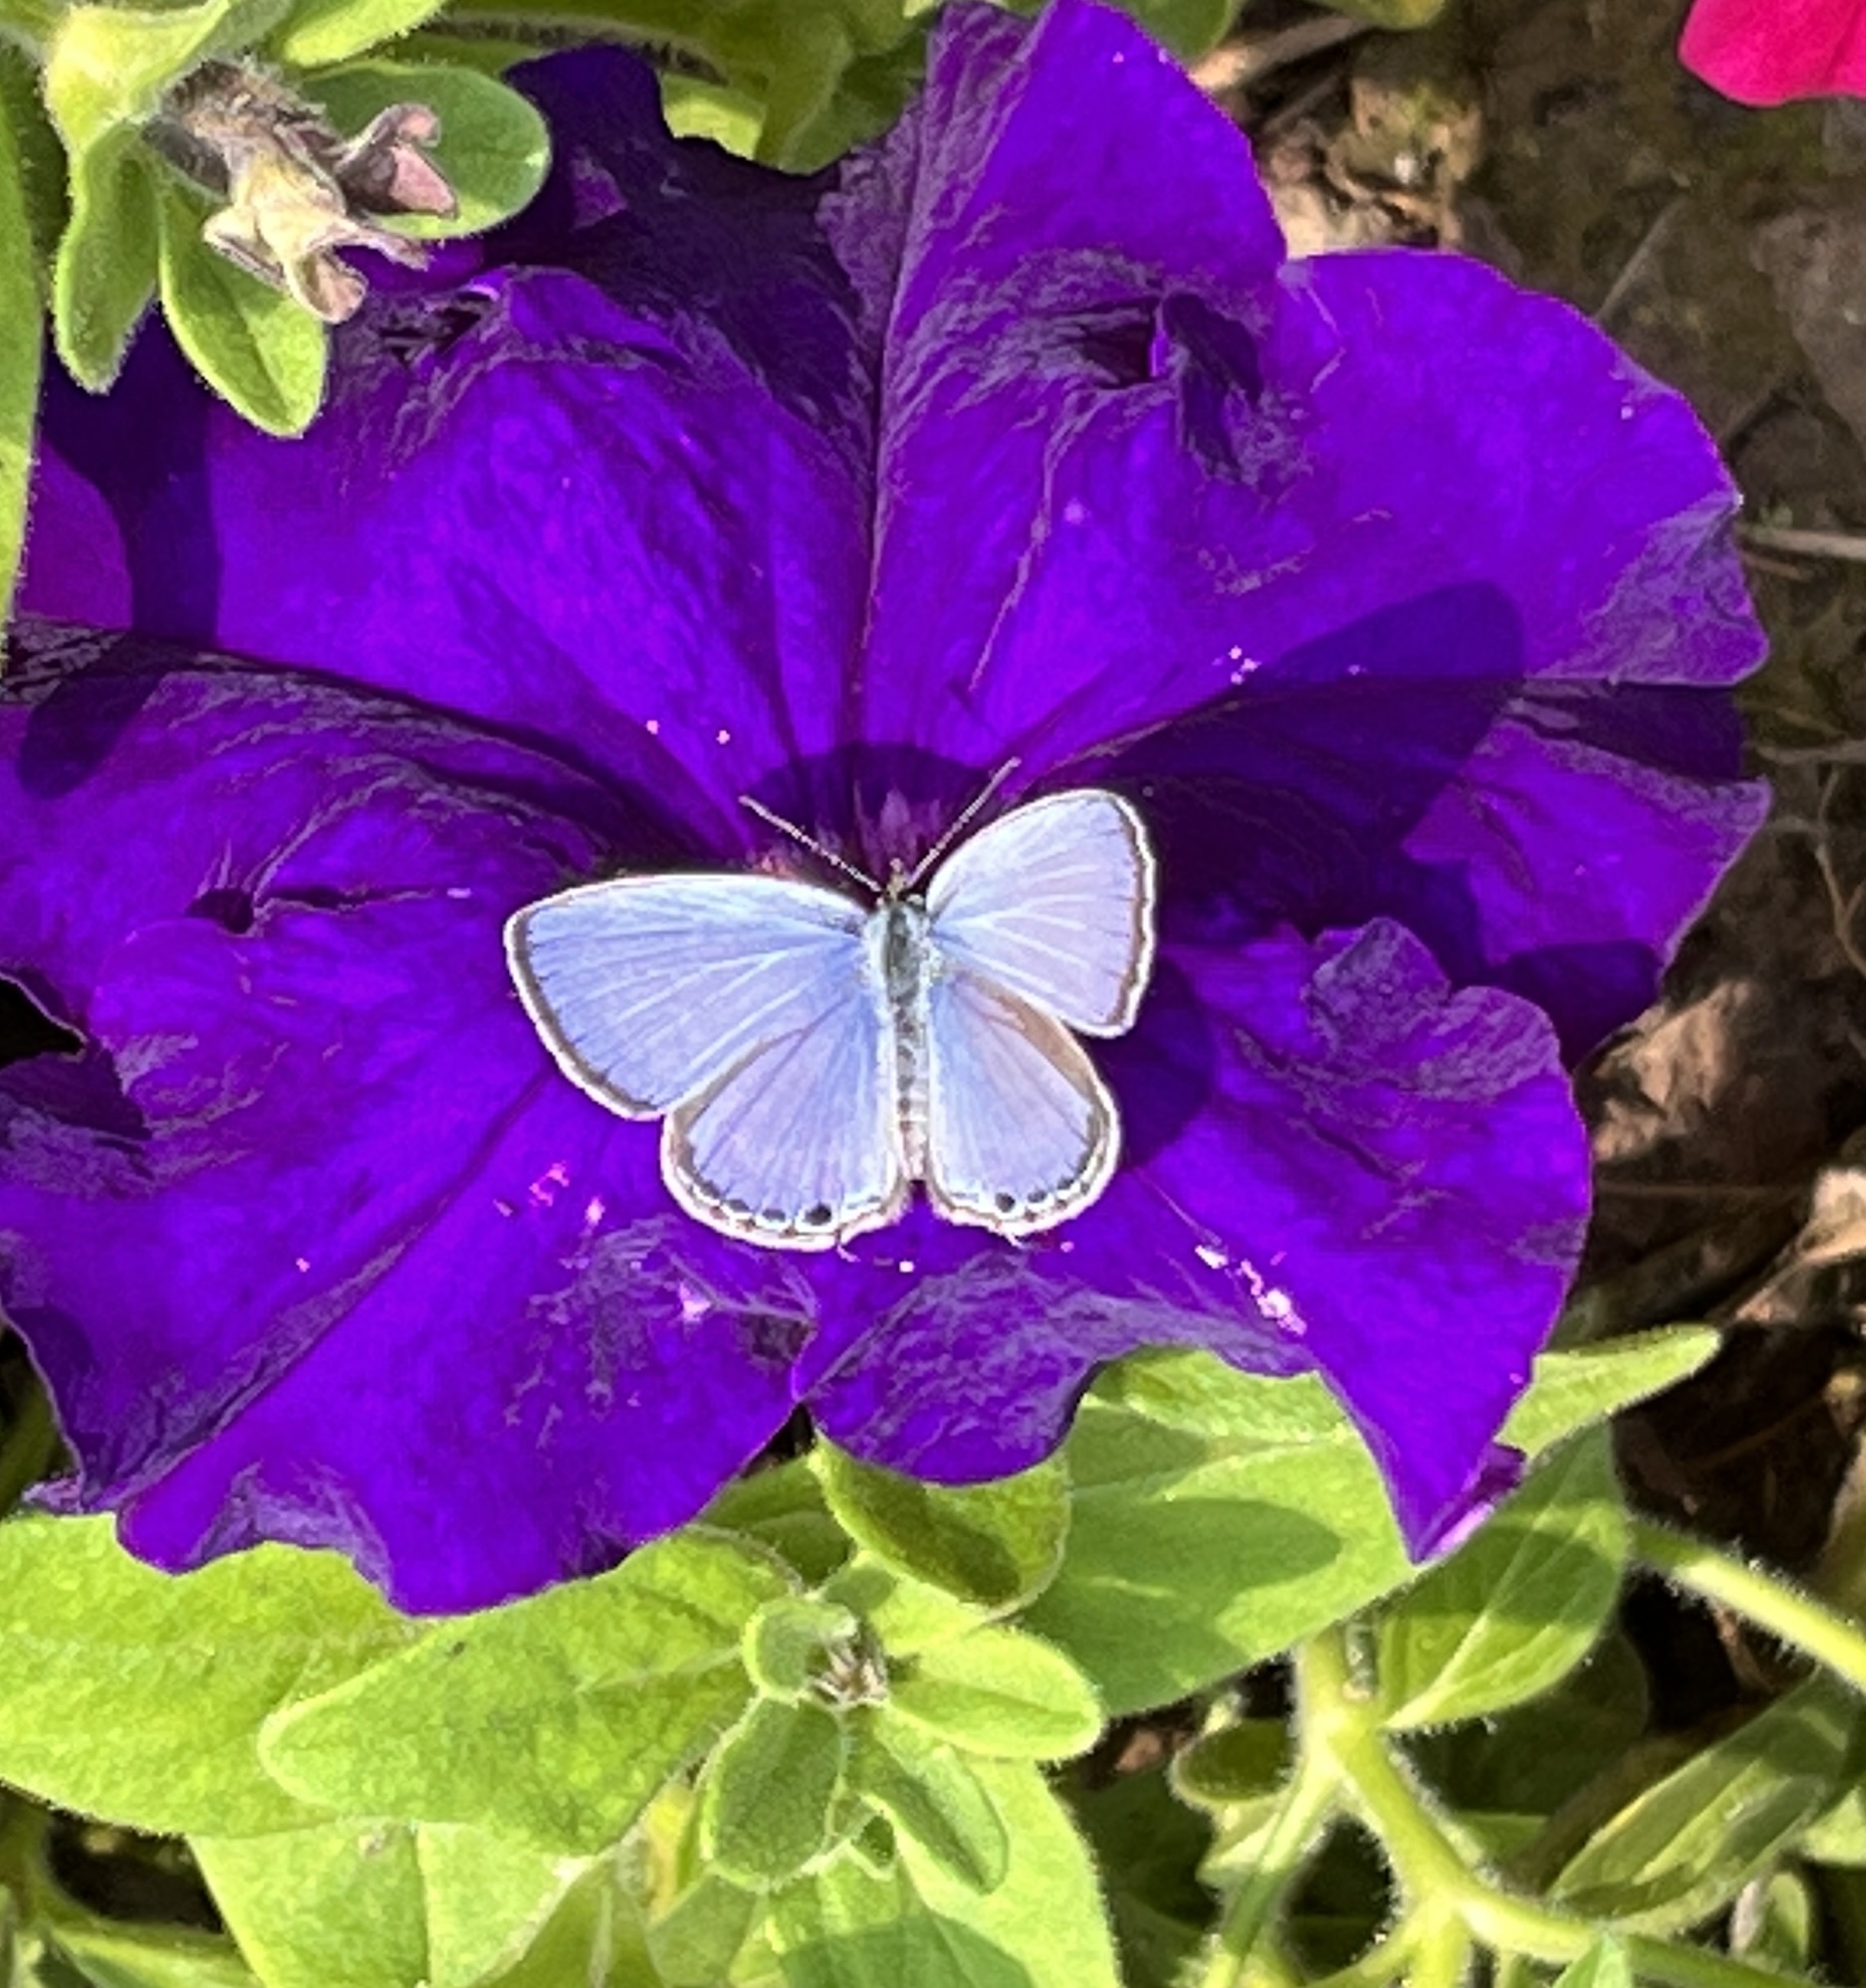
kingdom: Animalia
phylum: Arthropoda
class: Insecta
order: Lepidoptera
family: Lycaenidae
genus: Luthrodes
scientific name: Luthrodes pandava
